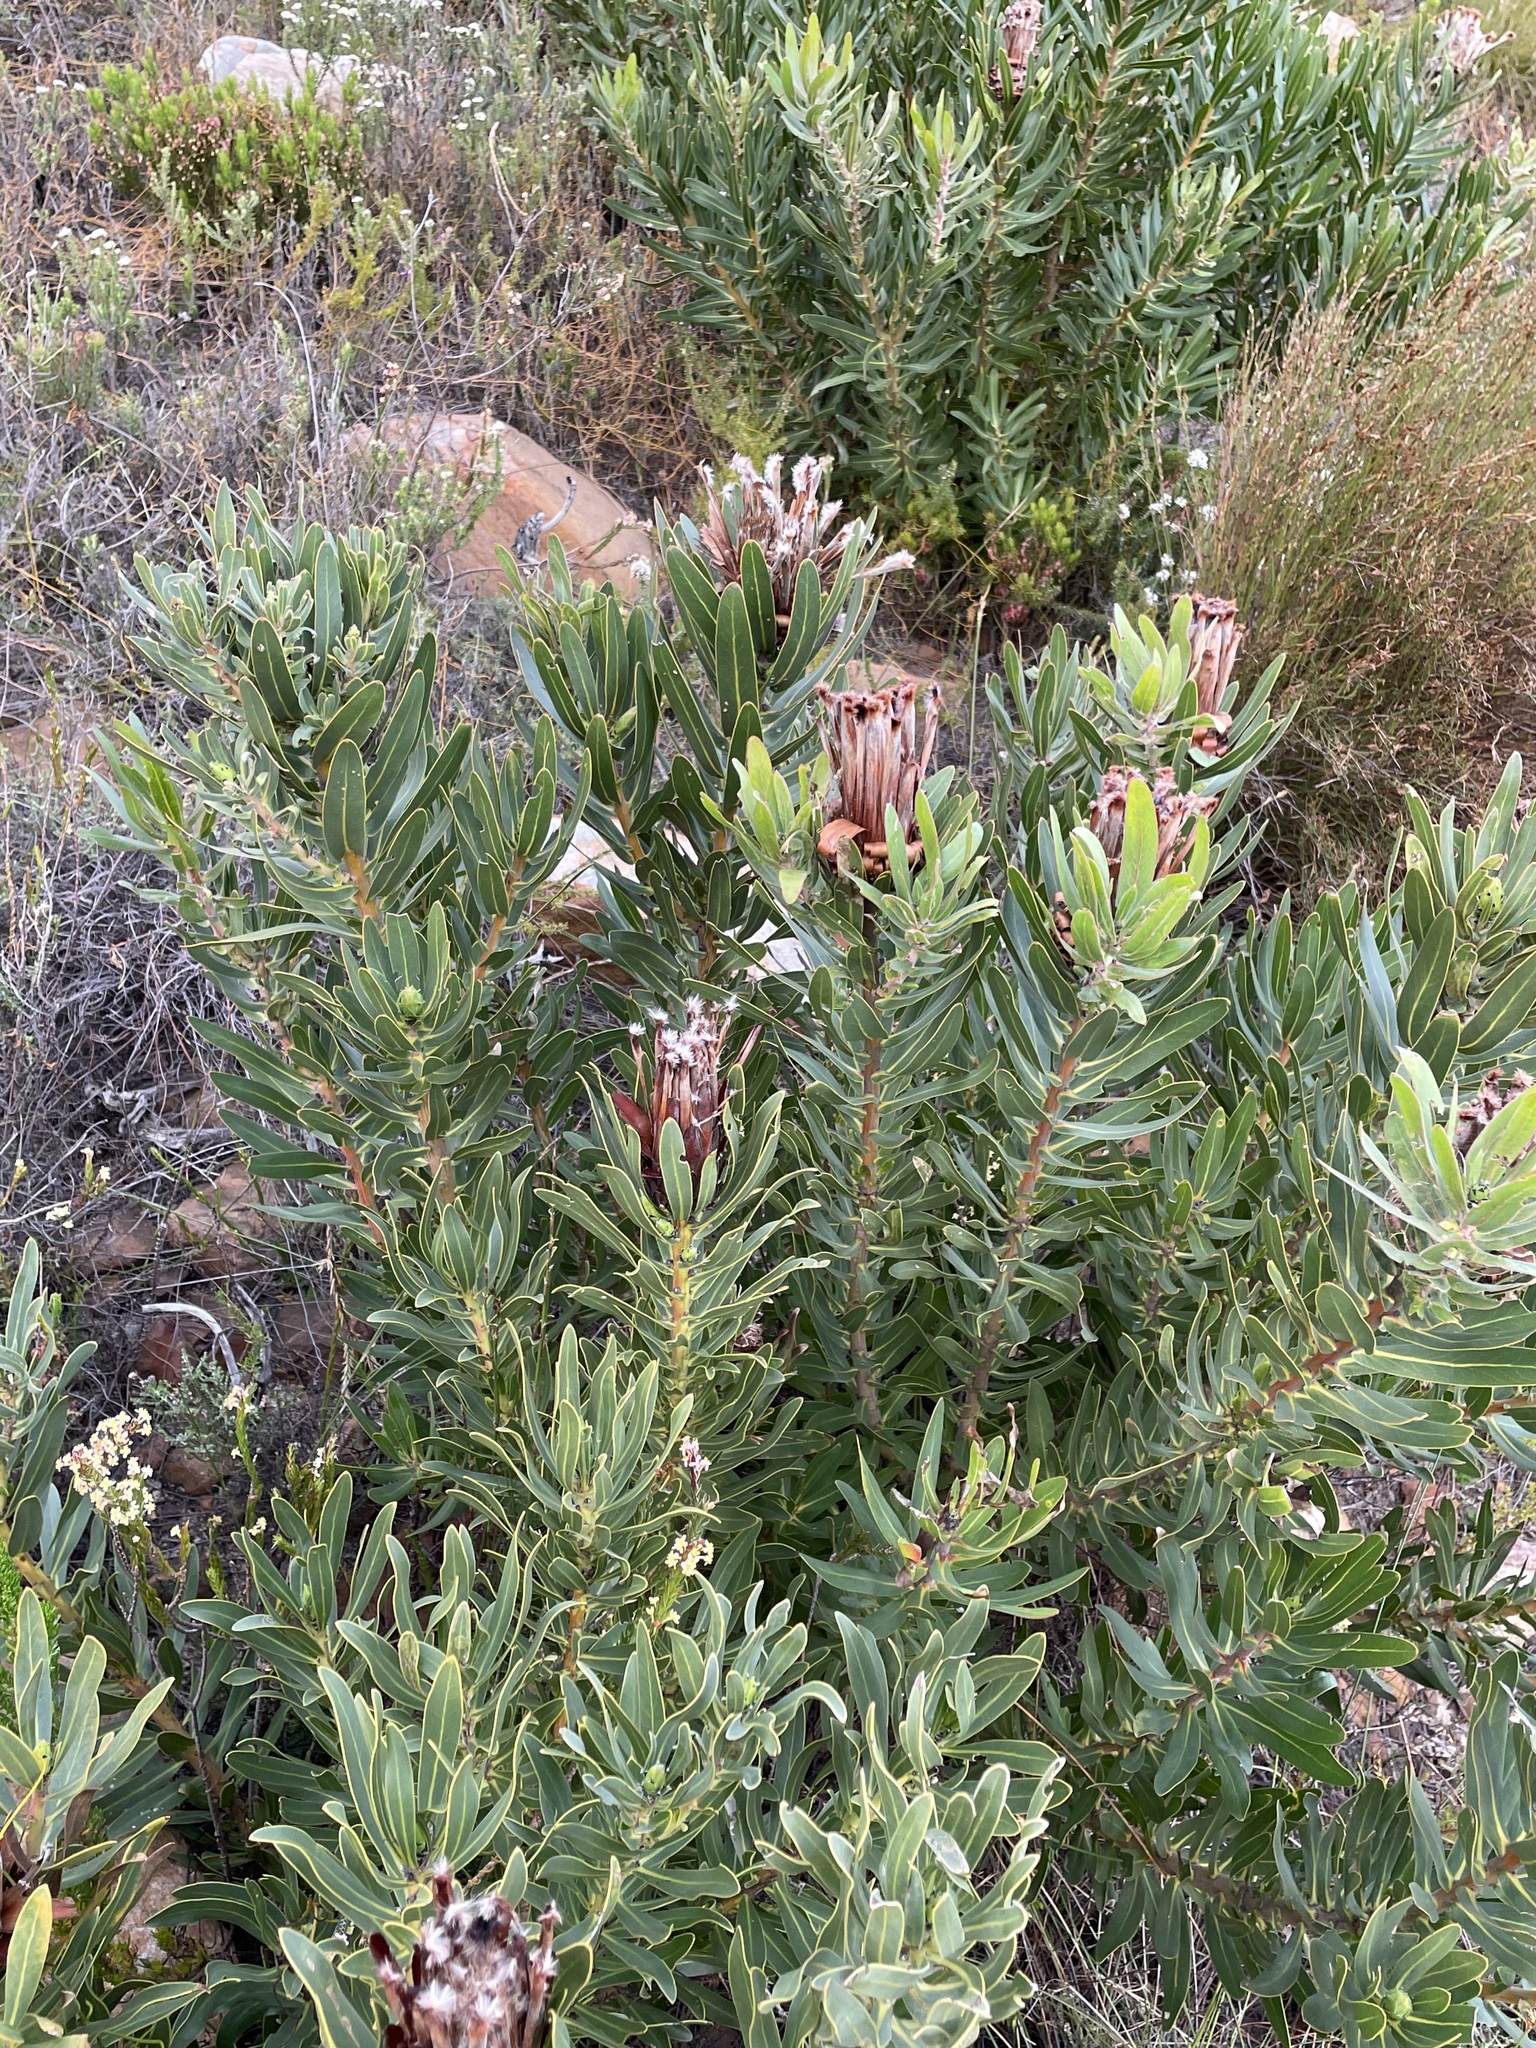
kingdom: Plantae
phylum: Tracheophyta
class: Magnoliopsida
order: Proteales
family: Proteaceae
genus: Protea
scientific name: Protea lepidocarpodendron
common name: Black-bearded protea
